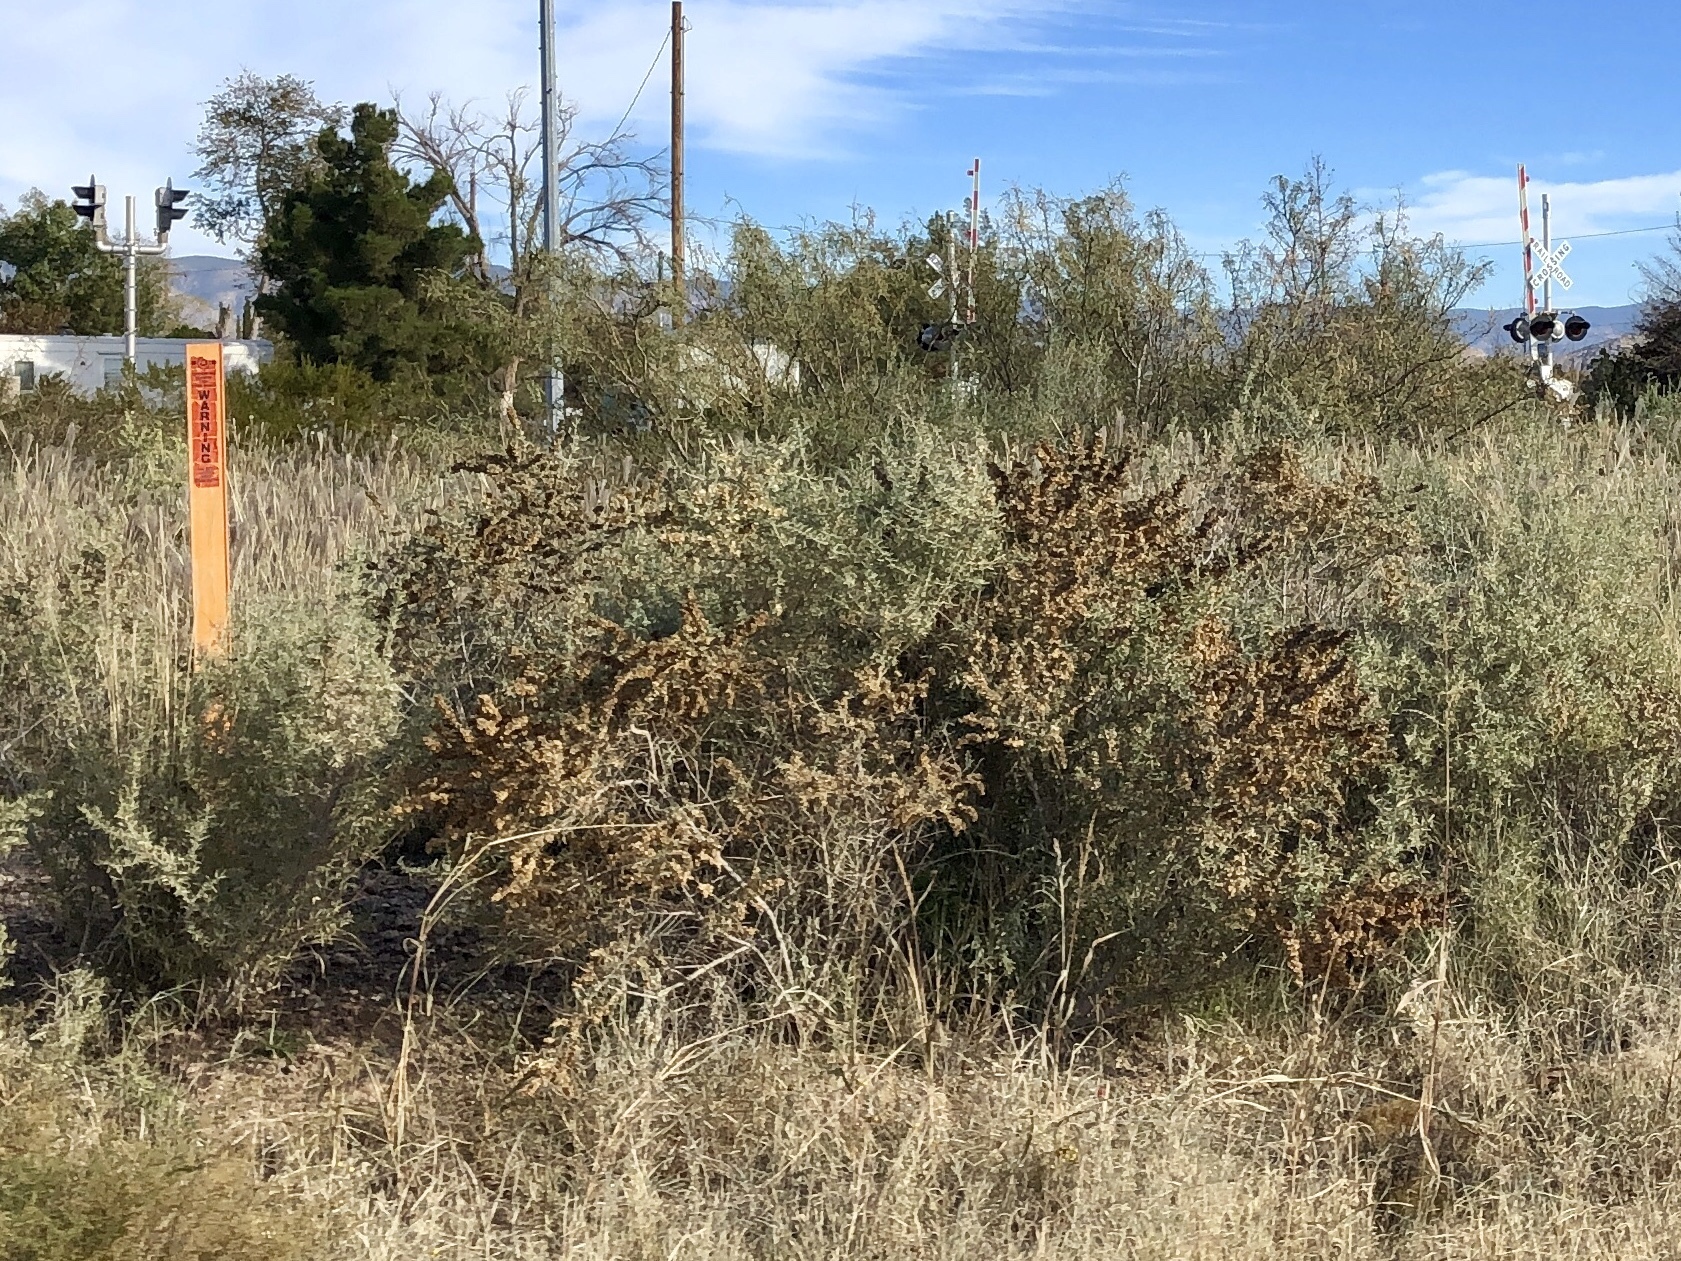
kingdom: Plantae
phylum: Tracheophyta
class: Magnoliopsida
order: Caryophyllales
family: Amaranthaceae
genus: Atriplex
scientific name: Atriplex canescens
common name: Four-wing saltbush
